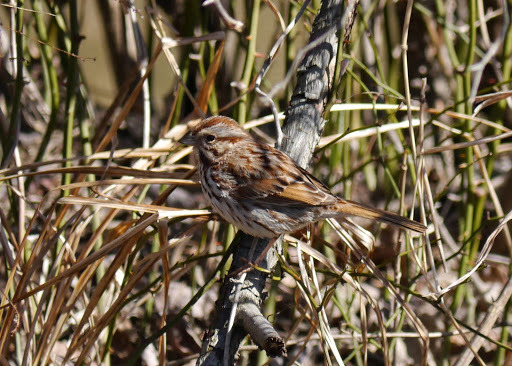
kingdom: Animalia
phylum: Chordata
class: Aves
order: Passeriformes
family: Passerellidae
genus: Melospiza
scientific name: Melospiza melodia
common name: Song sparrow
